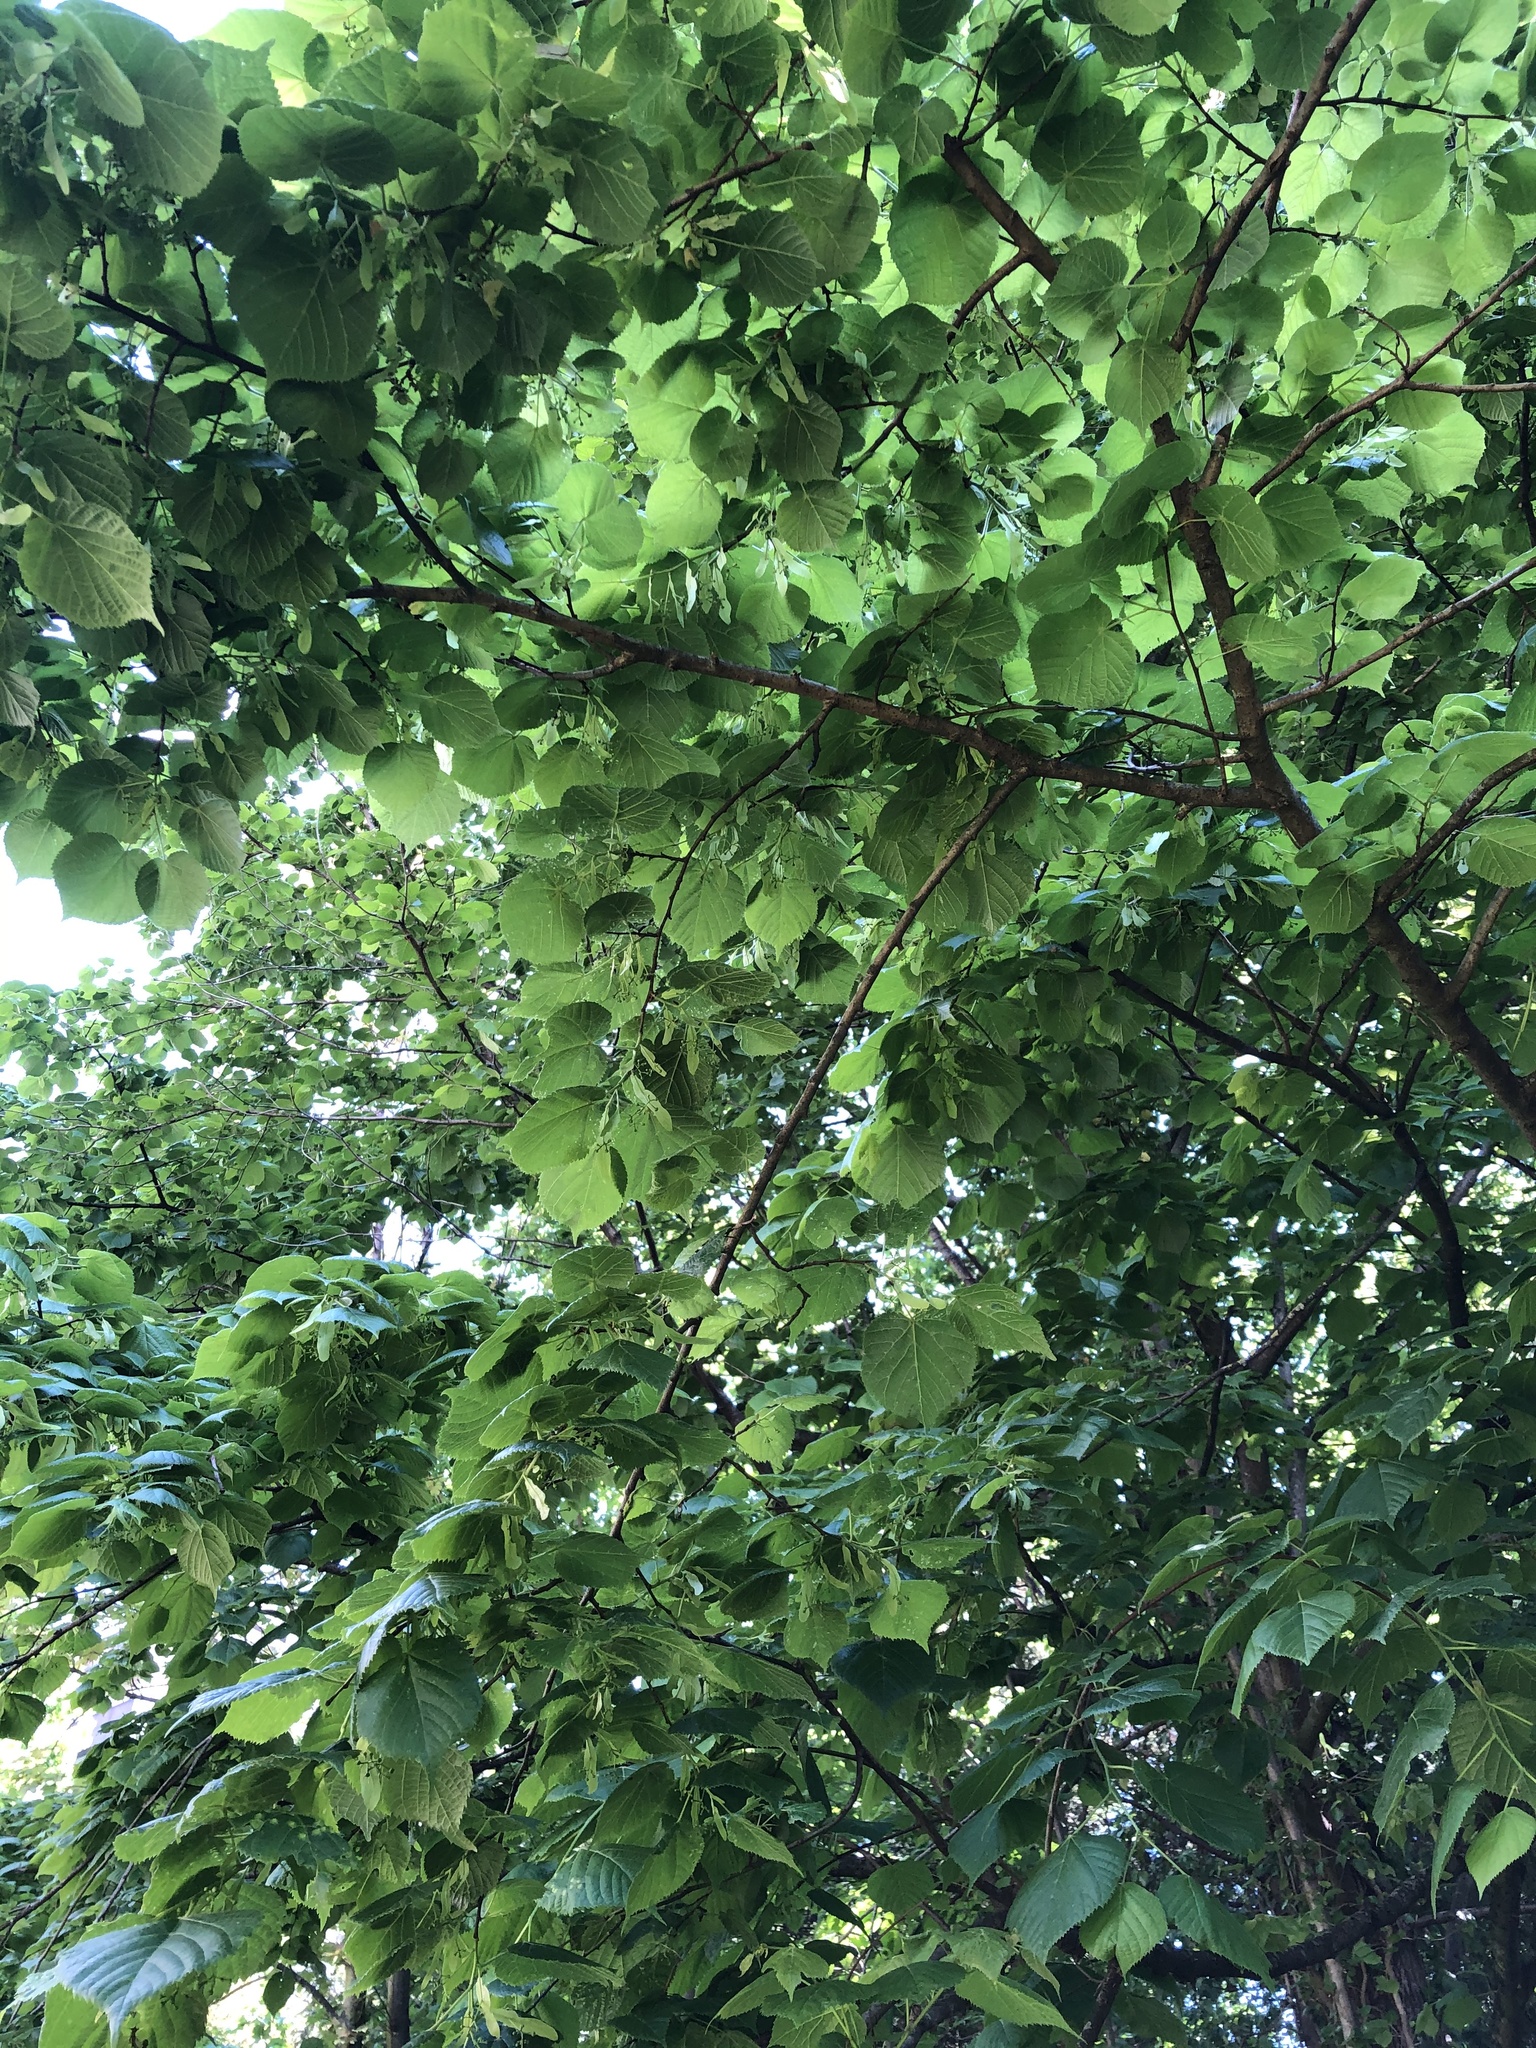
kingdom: Plantae
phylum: Tracheophyta
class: Magnoliopsida
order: Malvales
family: Malvaceae
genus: Tilia
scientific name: Tilia platyphyllos
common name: Large-leaved lime
